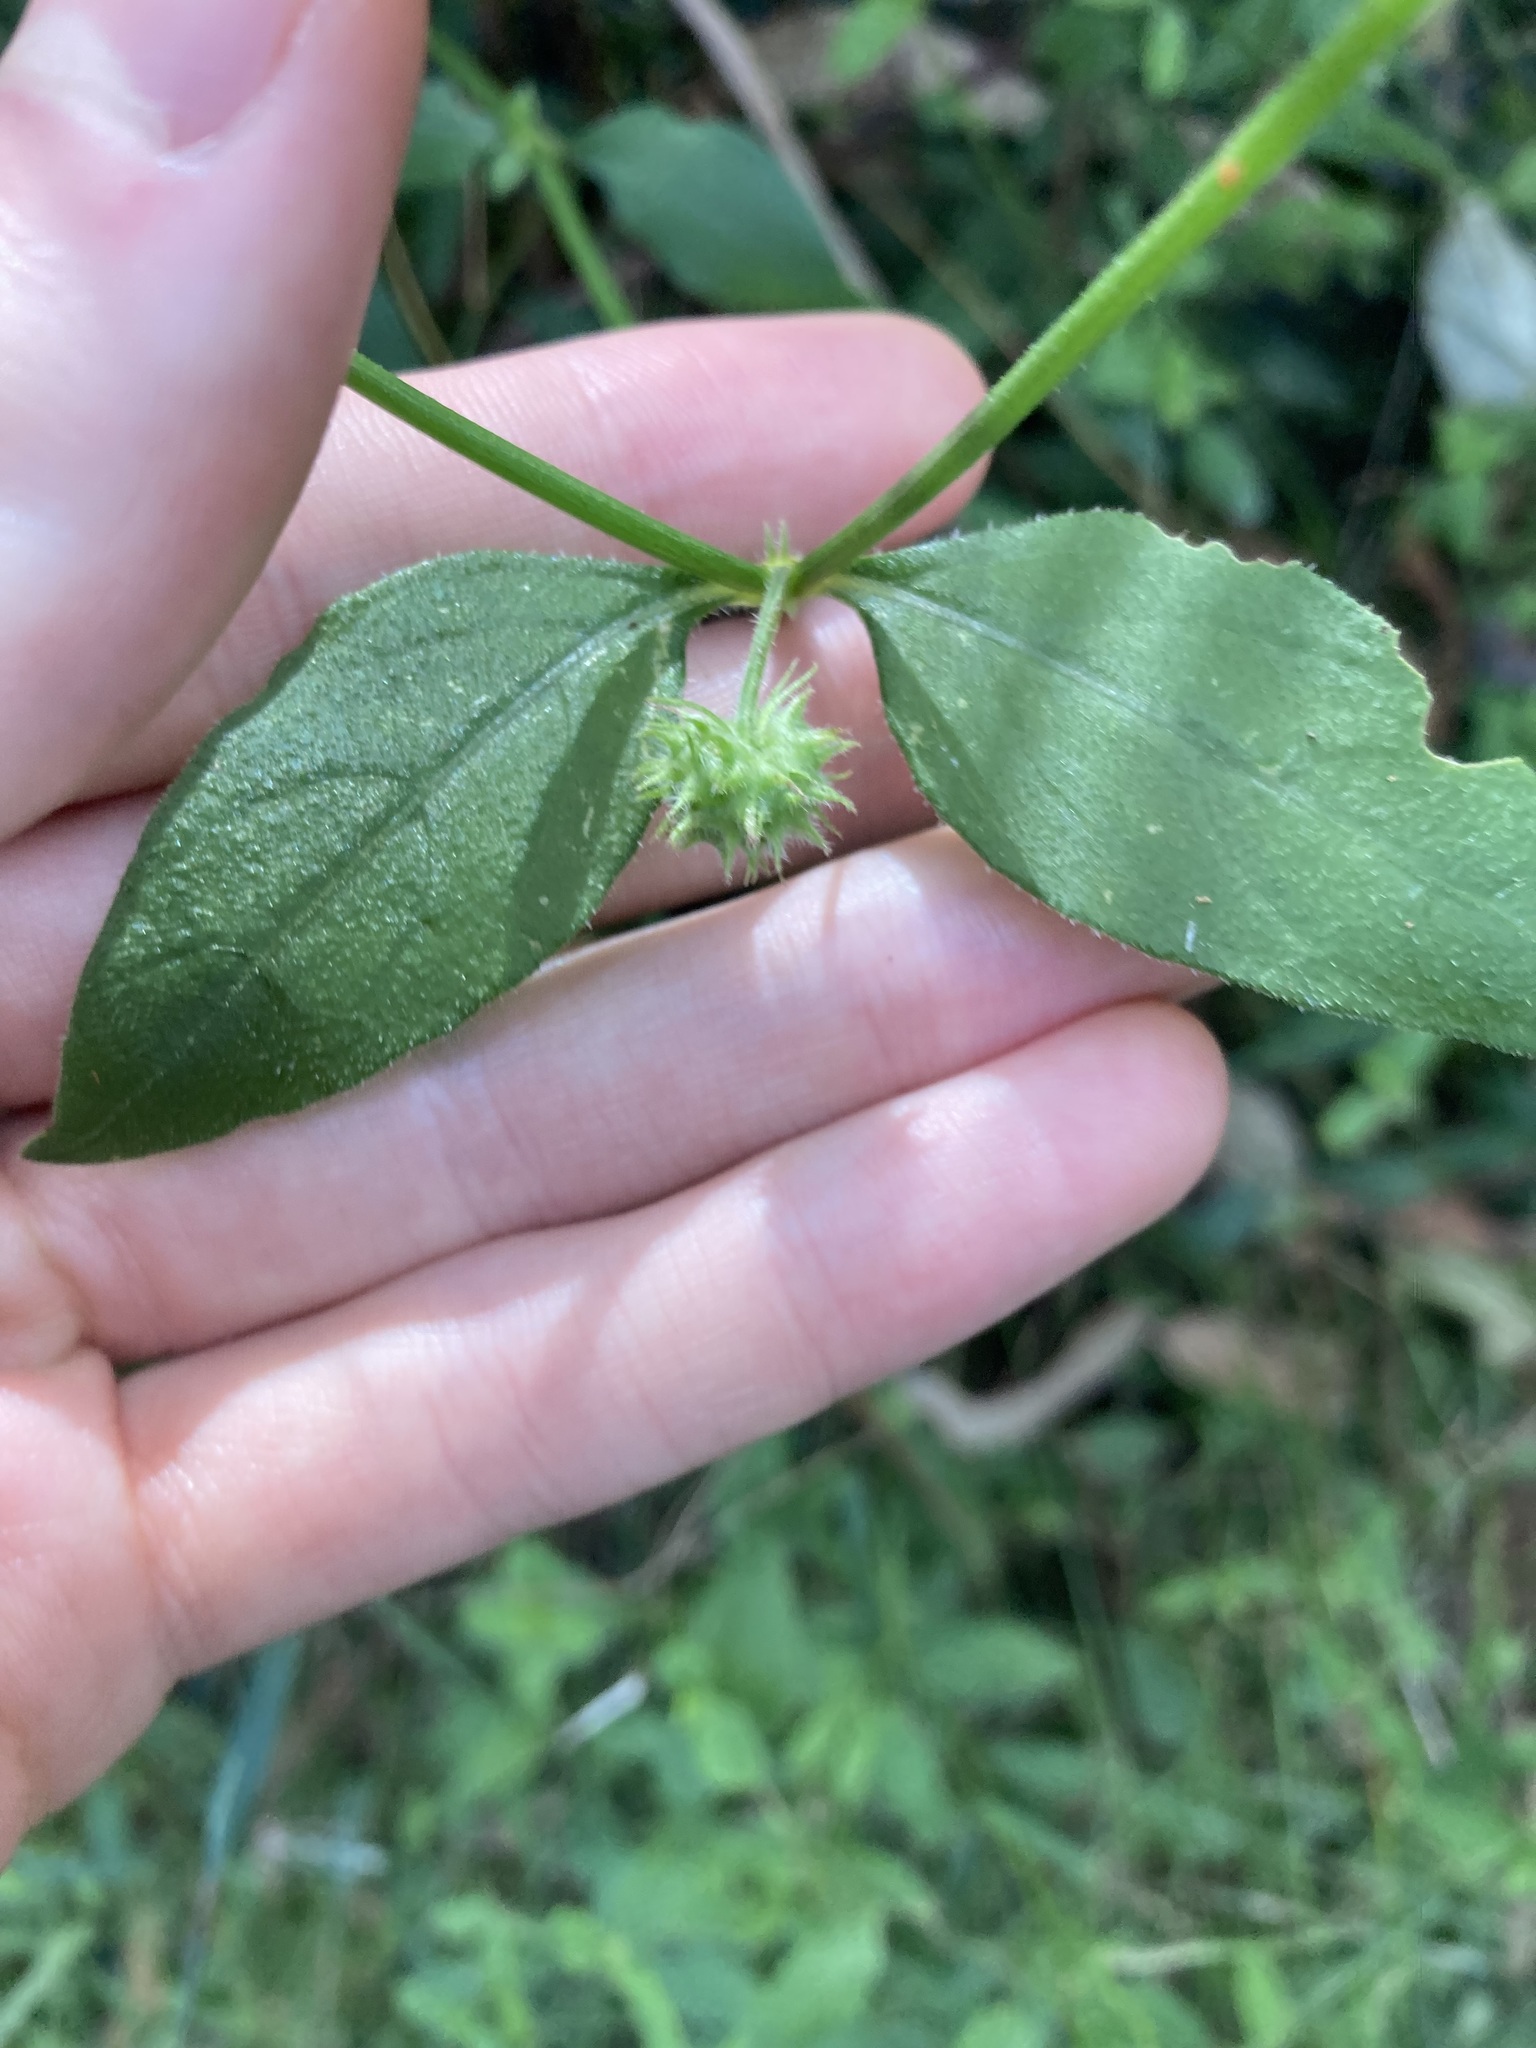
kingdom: Plantae
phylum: Tracheophyta
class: Magnoliopsida
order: Gentianales
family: Rubiaceae
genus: Opercularia
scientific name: Opercularia aspera
